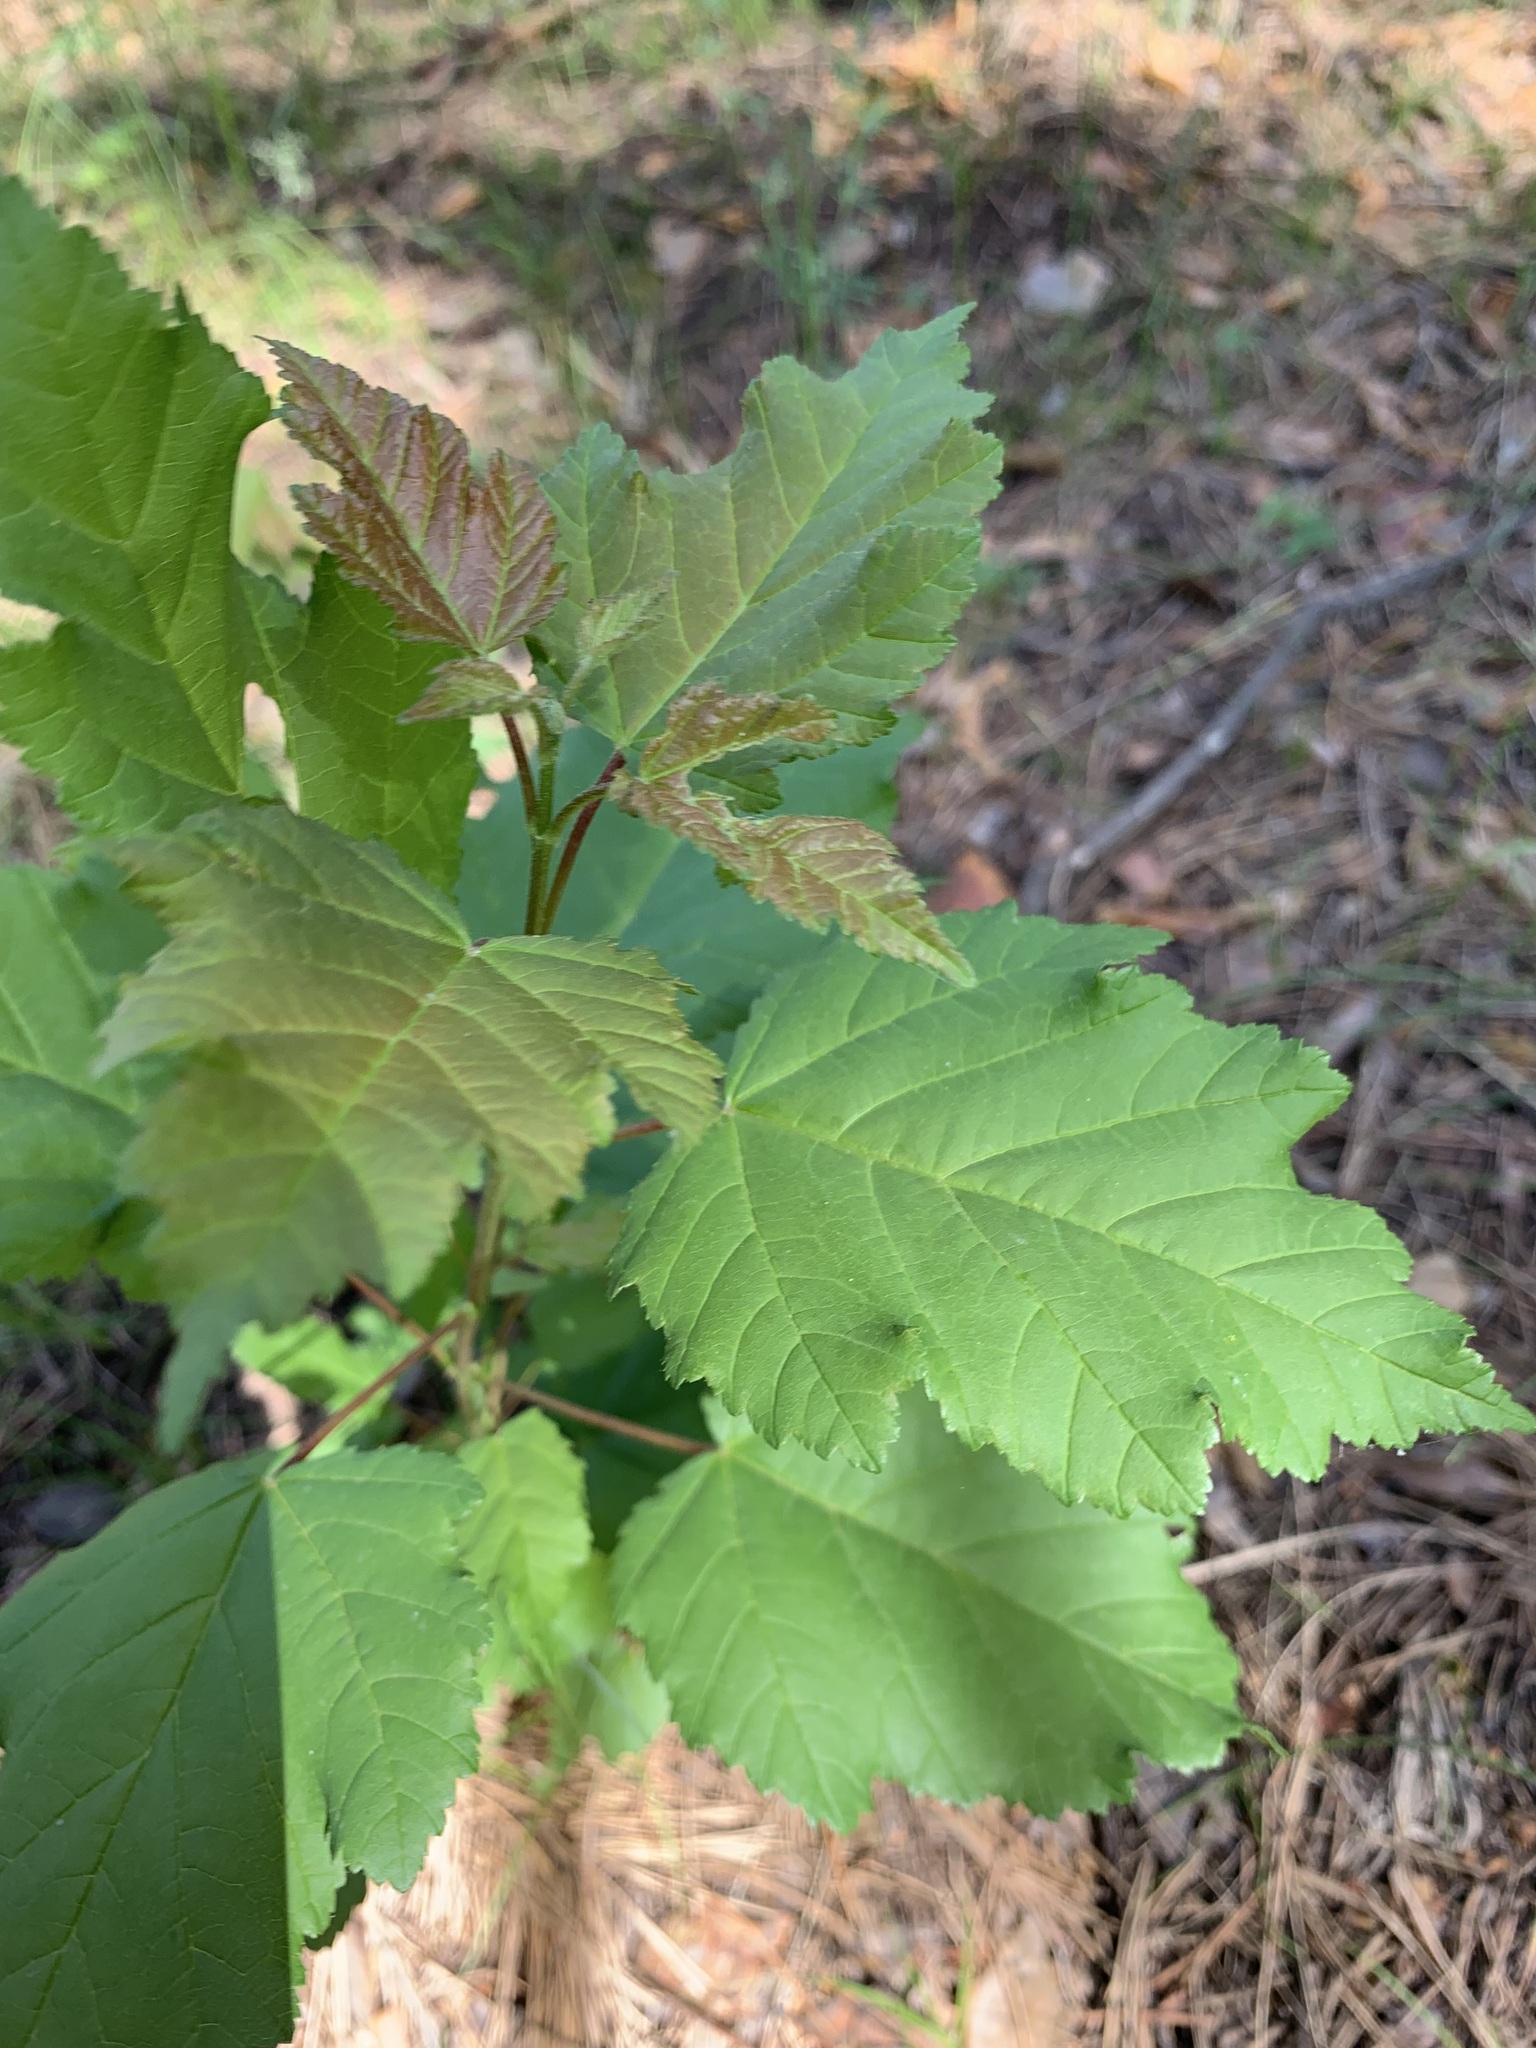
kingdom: Plantae
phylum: Tracheophyta
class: Magnoliopsida
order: Sapindales
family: Sapindaceae
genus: Acer
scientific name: Acer tataricum
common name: Tartar maple
